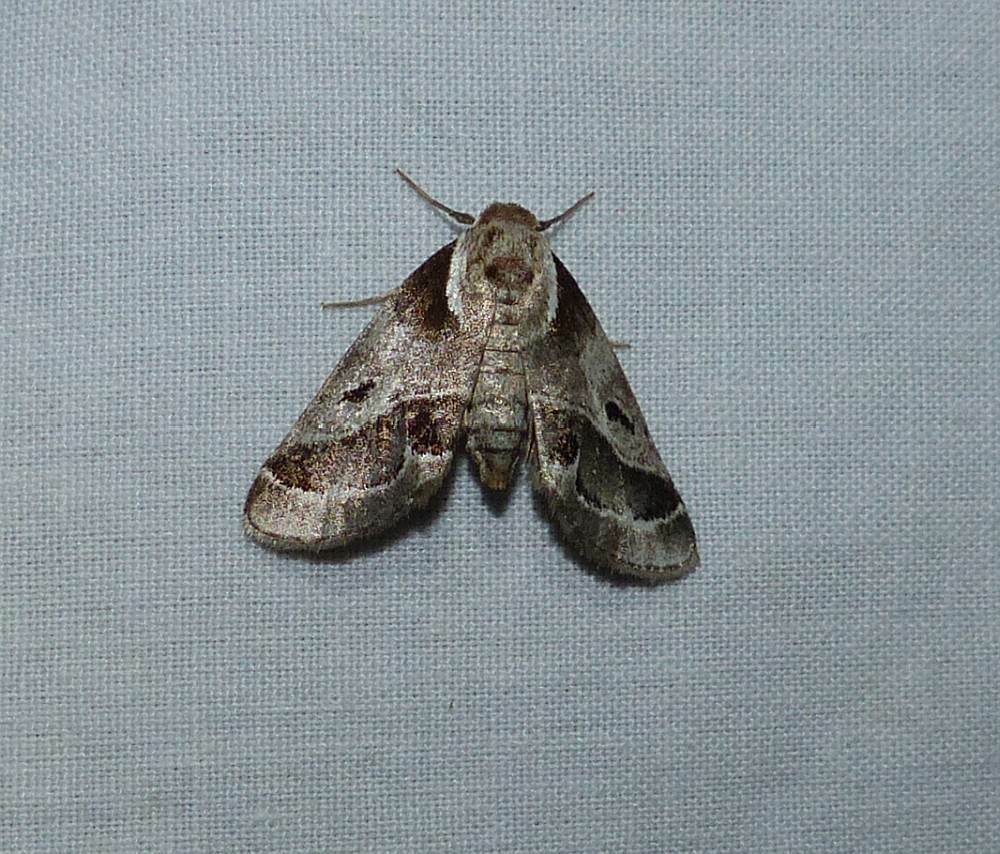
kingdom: Animalia
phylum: Arthropoda
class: Insecta
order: Lepidoptera
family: Nolidae
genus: Baileya
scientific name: Baileya doubledayi
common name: Doubleday's baileya moth
